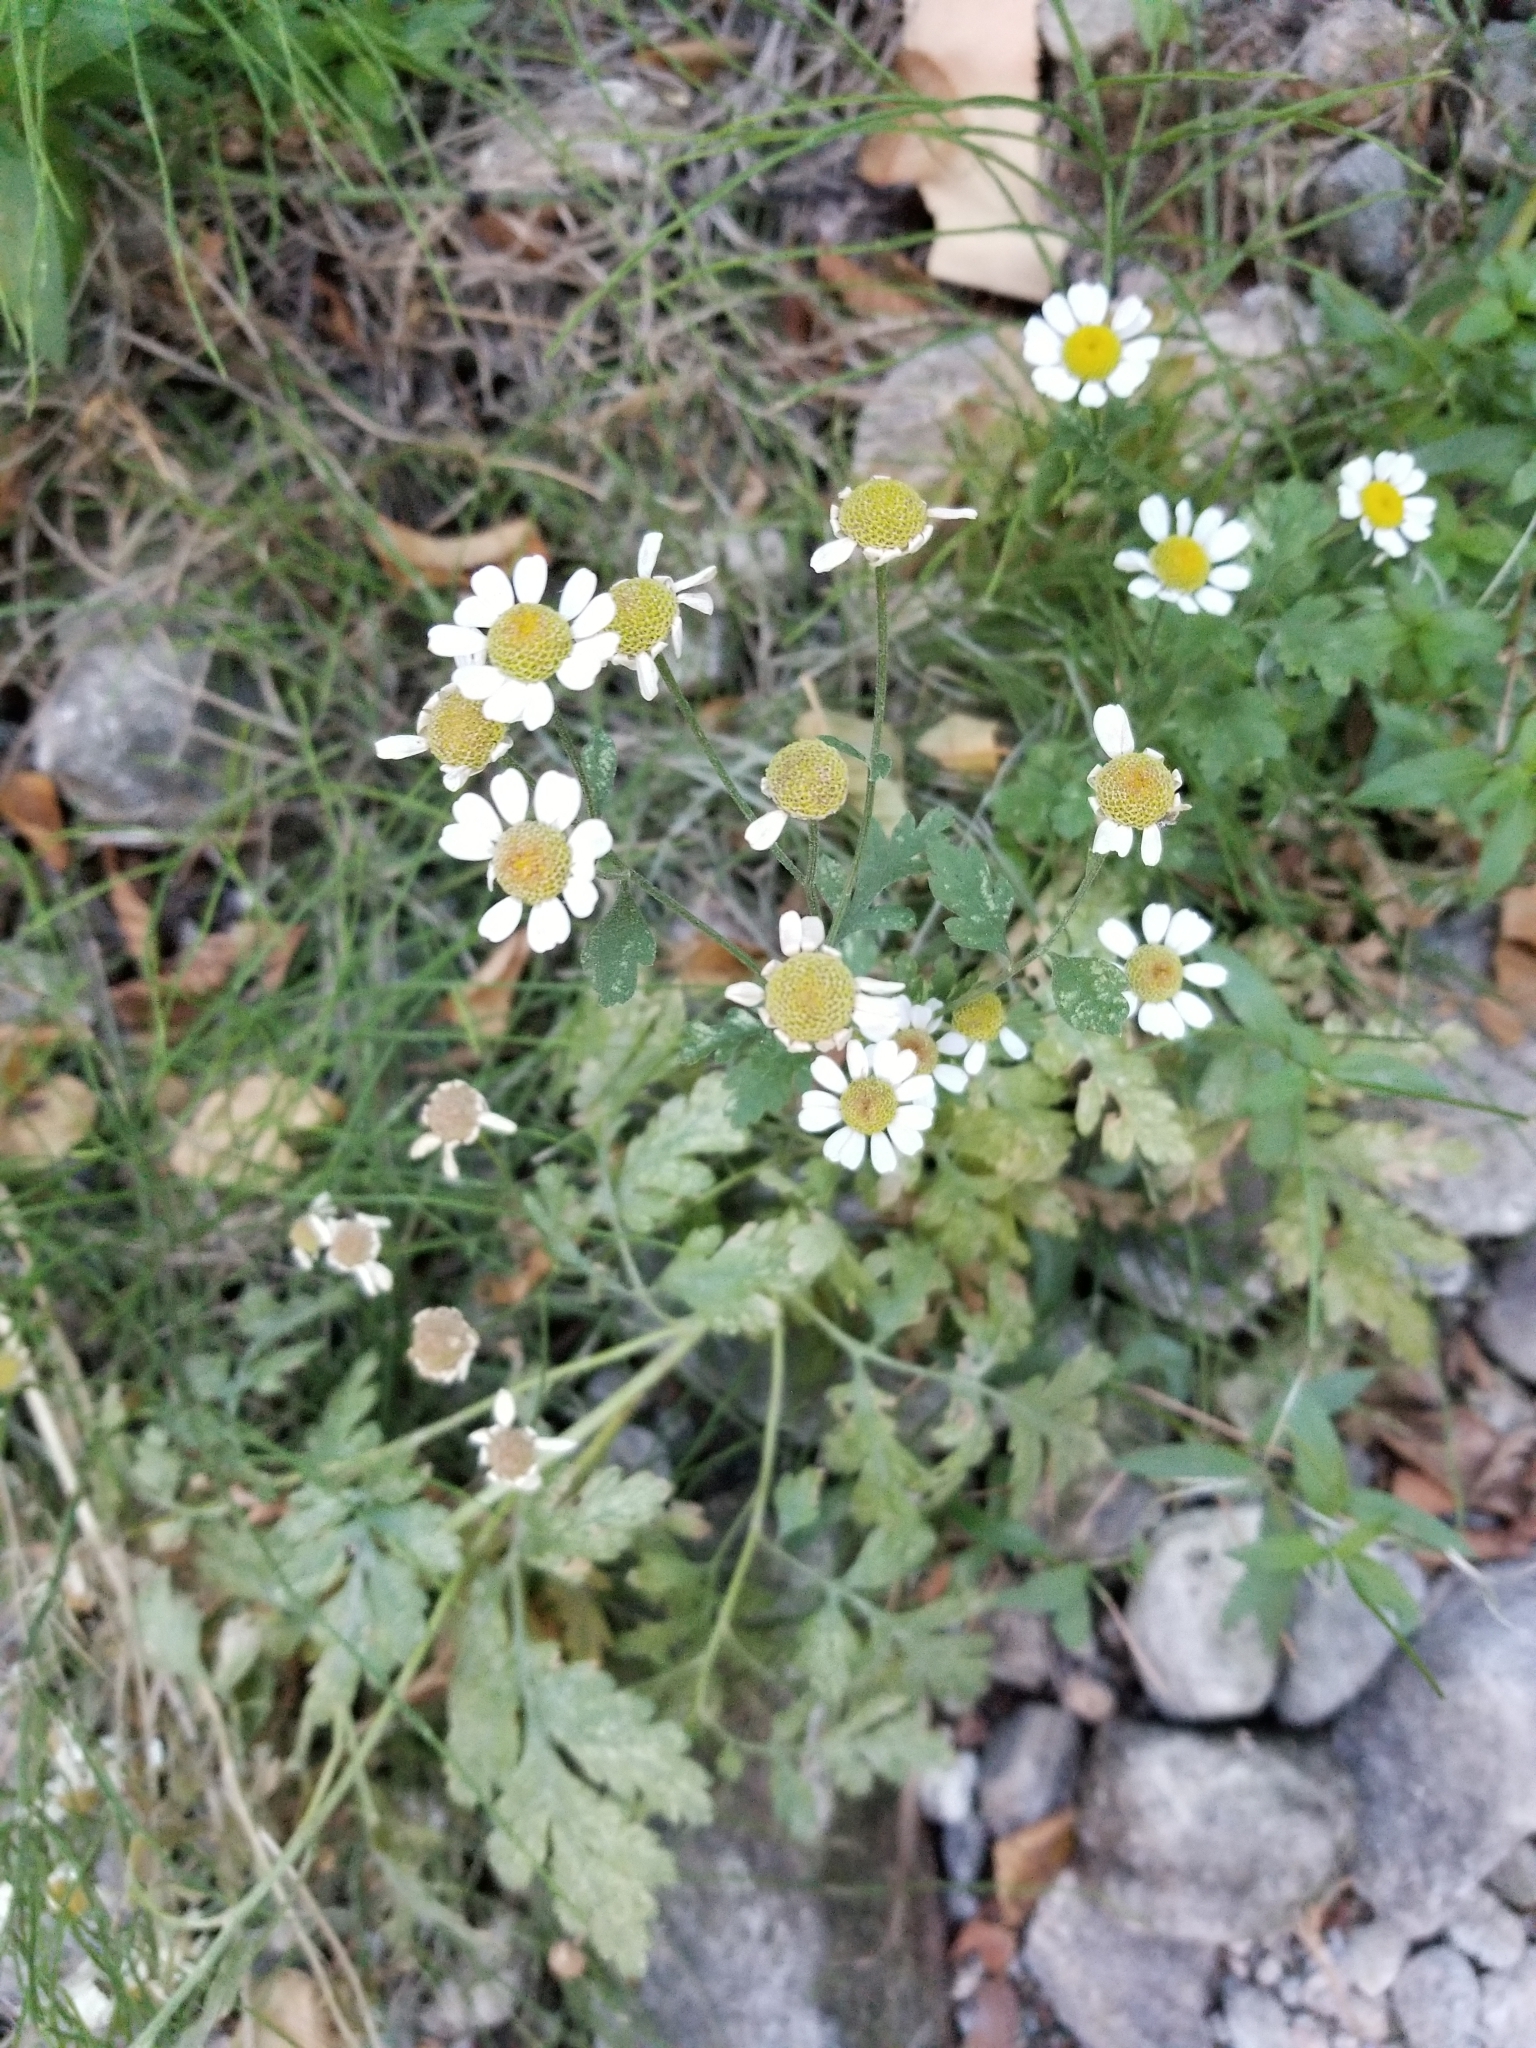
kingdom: Plantae
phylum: Tracheophyta
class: Magnoliopsida
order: Asterales
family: Asteraceae
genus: Tanacetum
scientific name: Tanacetum parthenium
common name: Feverfew
